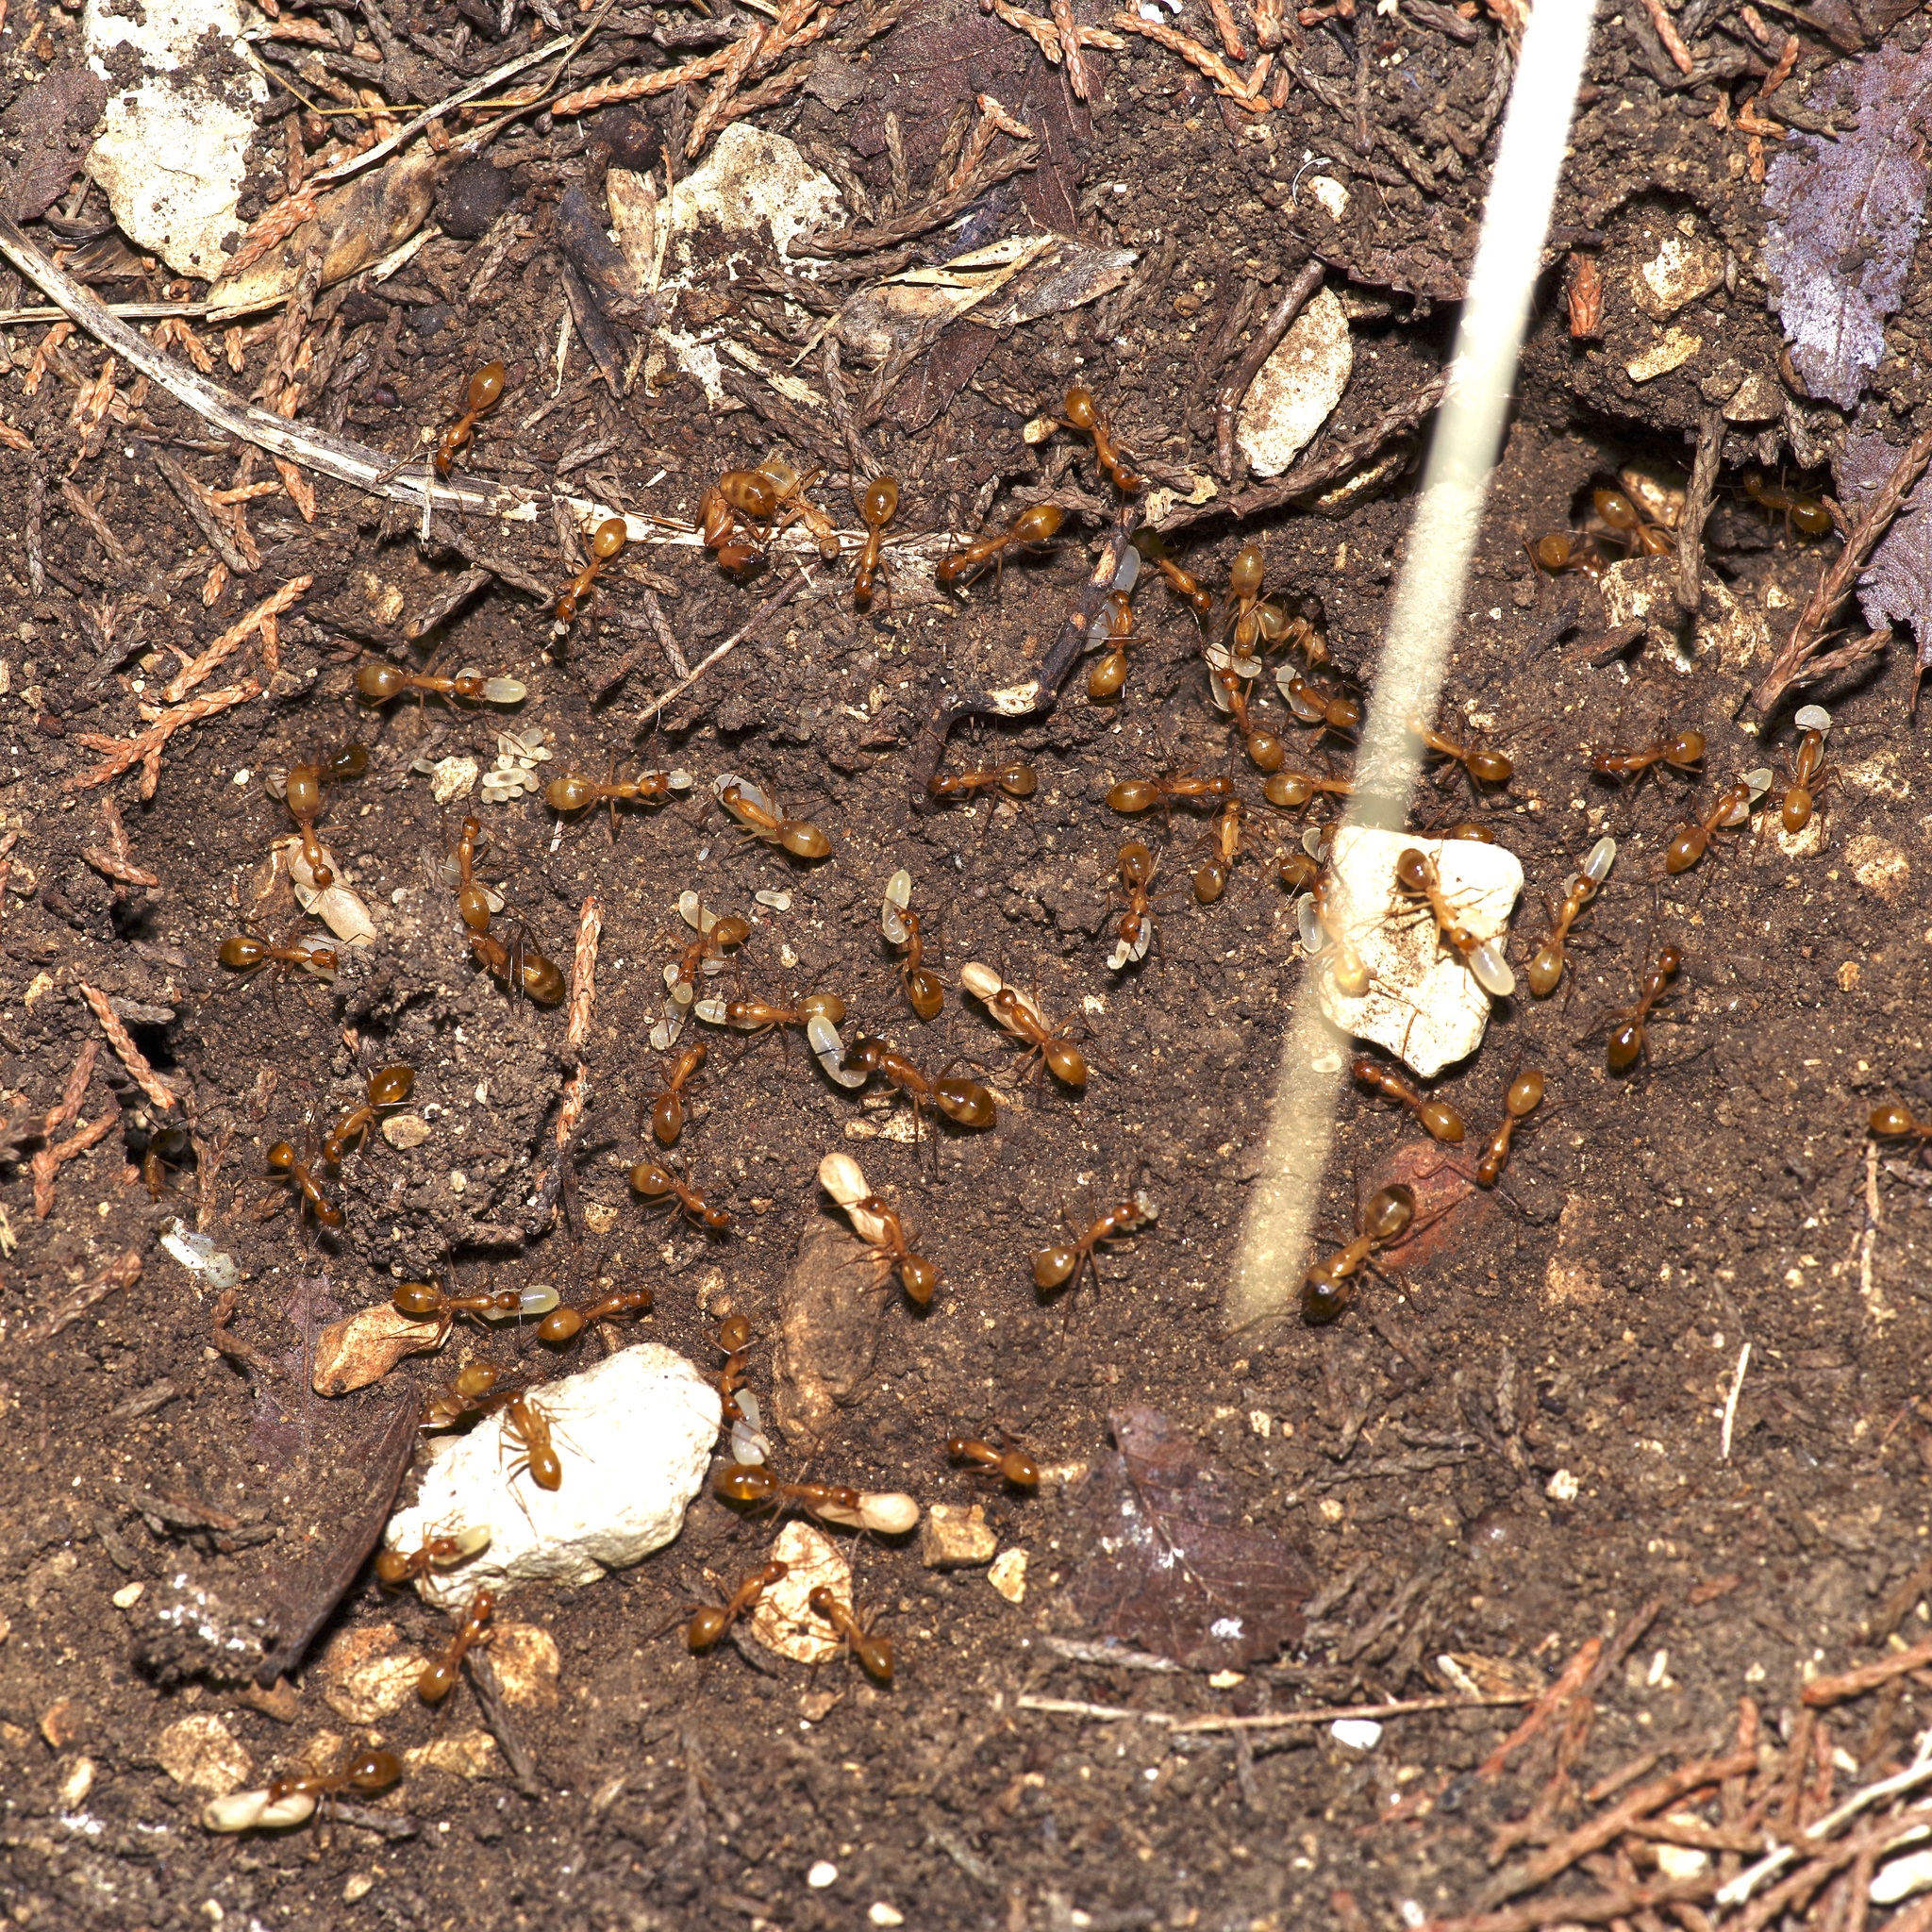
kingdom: Animalia
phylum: Arthropoda
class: Insecta
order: Hymenoptera
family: Formicidae
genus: Camponotus
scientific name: Camponotus festinatus
